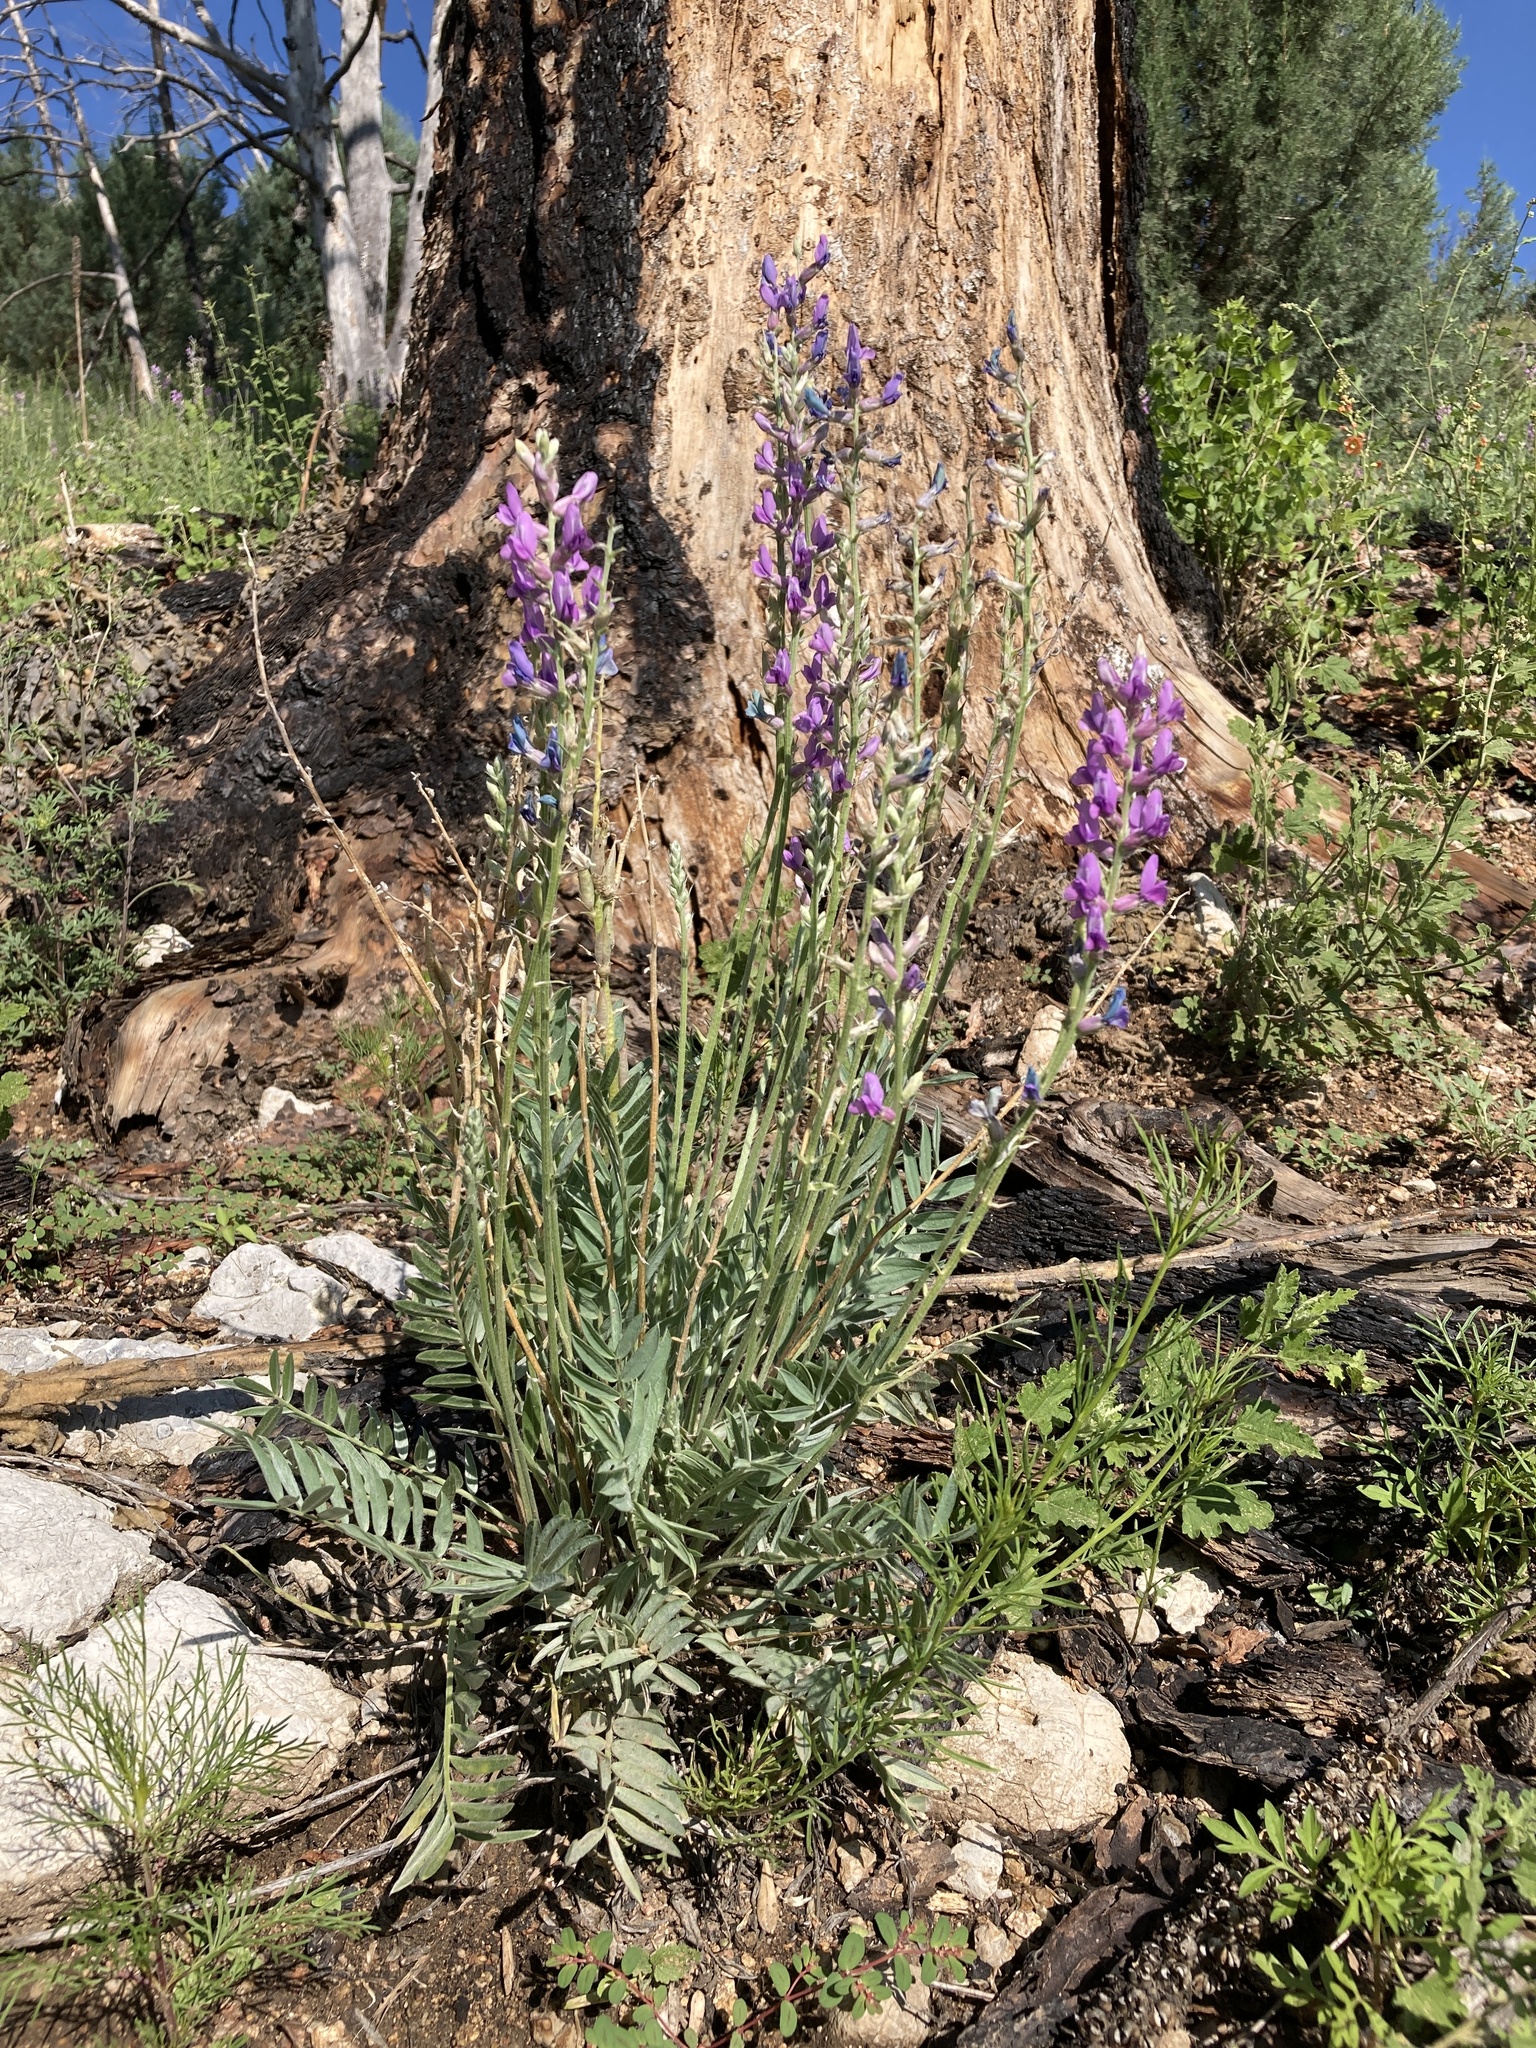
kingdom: Plantae
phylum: Tracheophyta
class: Magnoliopsida
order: Fabales
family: Fabaceae
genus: Oxytropis
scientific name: Oxytropis lambertii
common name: Purple locoweed
